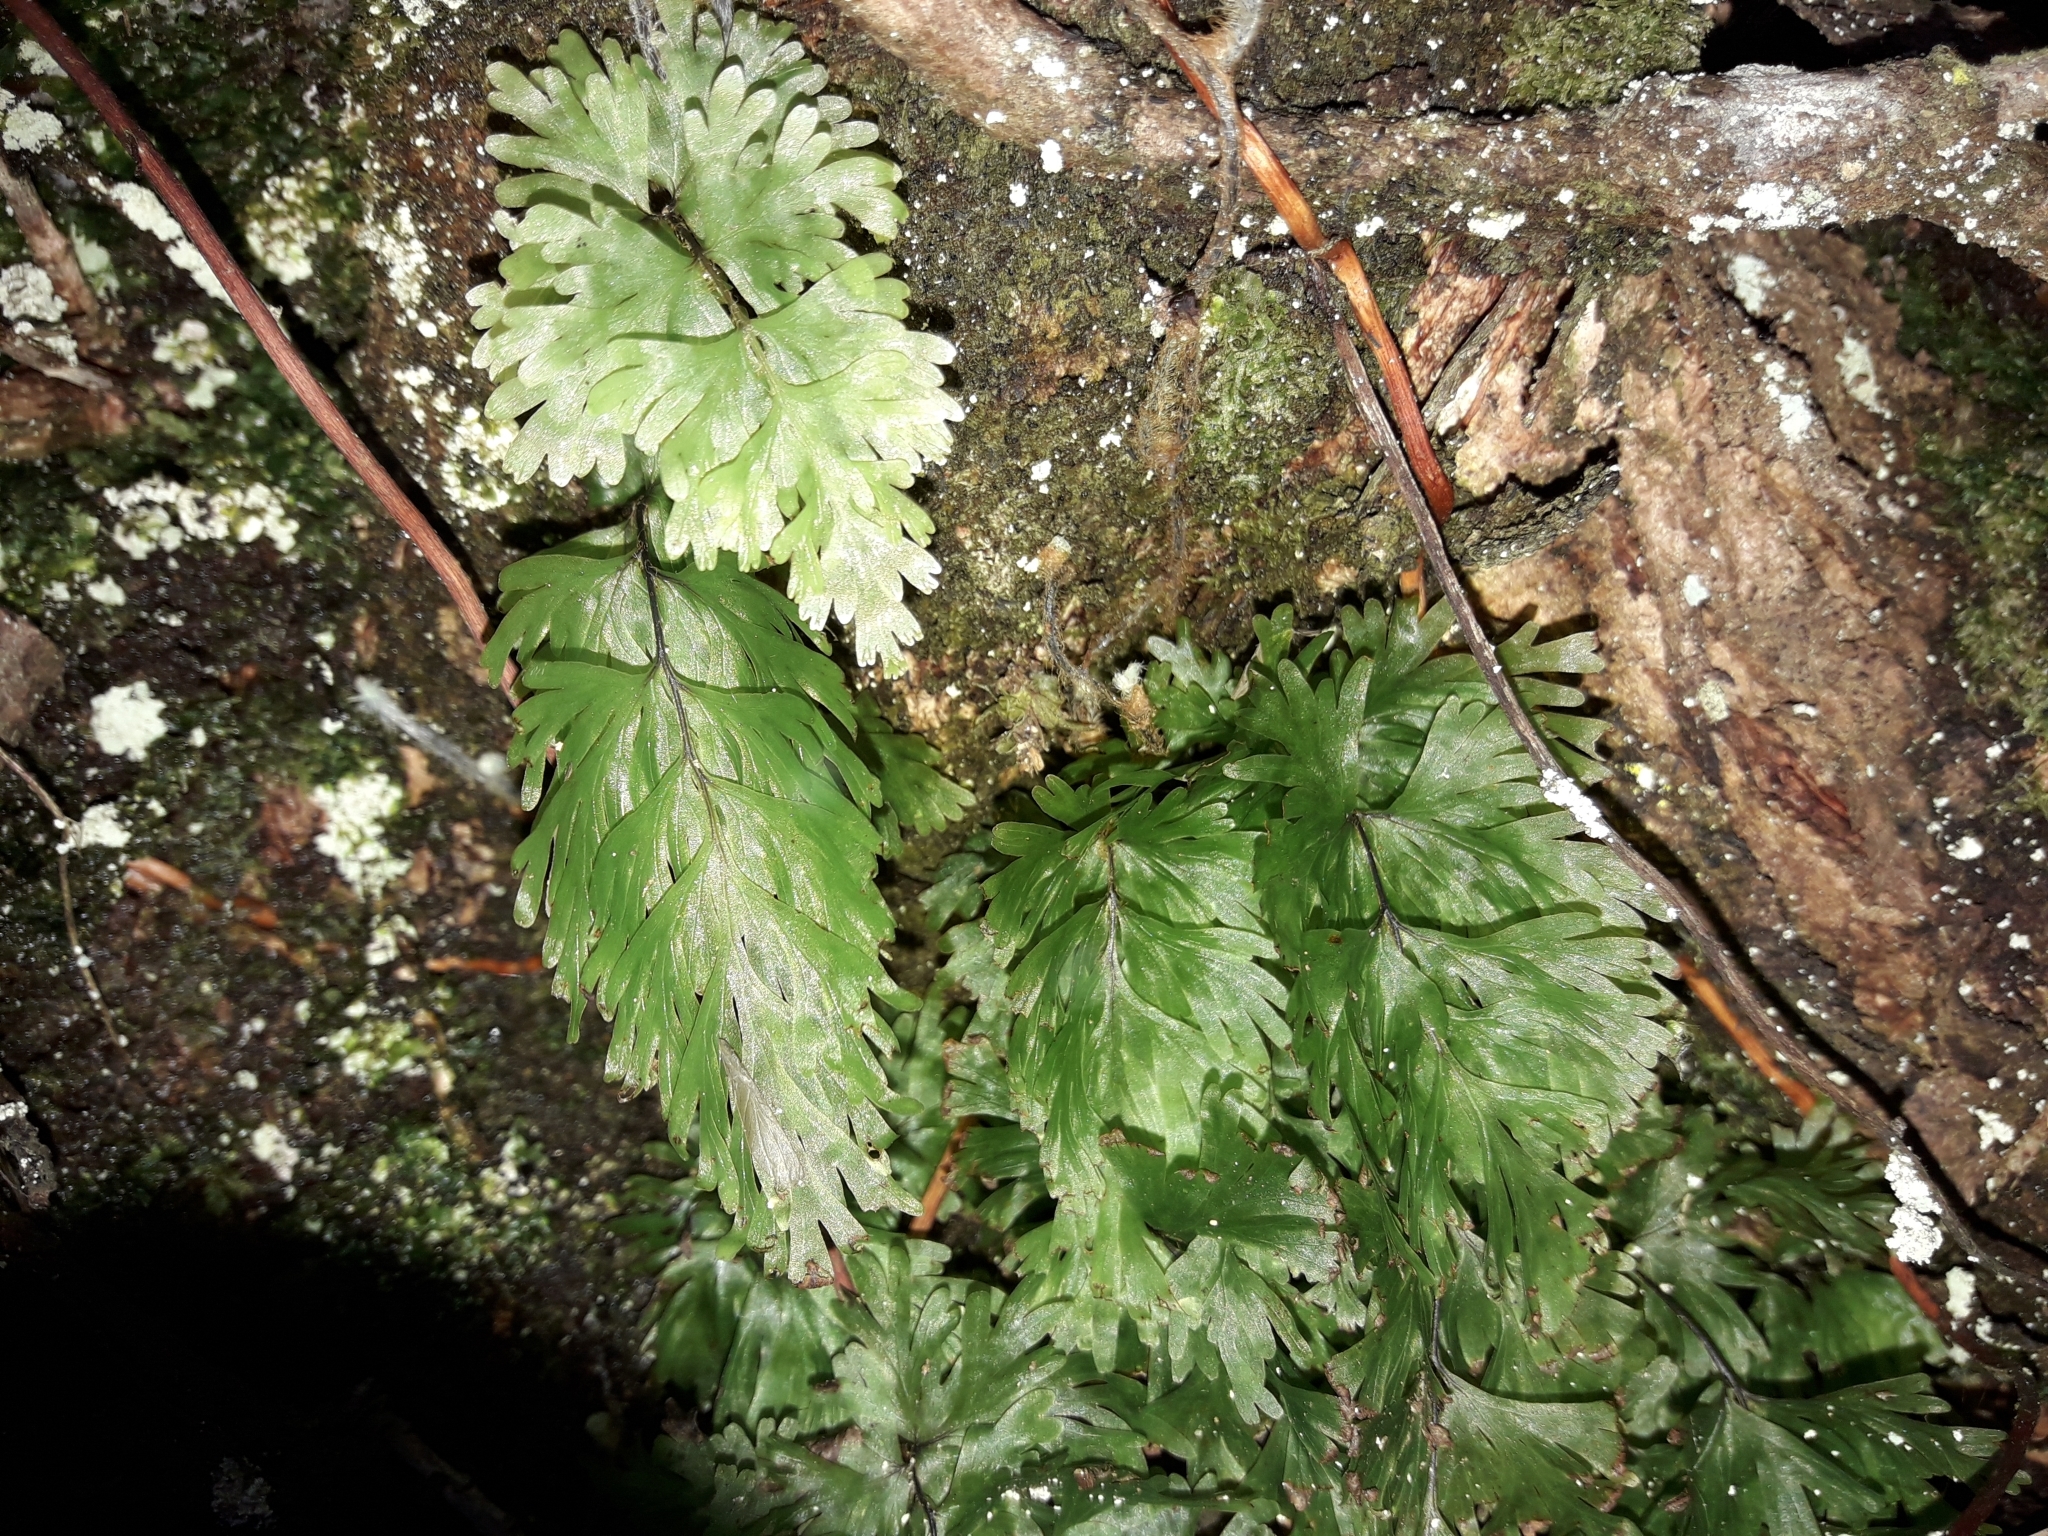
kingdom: Plantae
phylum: Tracheophyta
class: Polypodiopsida
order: Hymenophyllales
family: Hymenophyllaceae
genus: Hymenophyllum
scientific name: Hymenophyllum flabellatum
